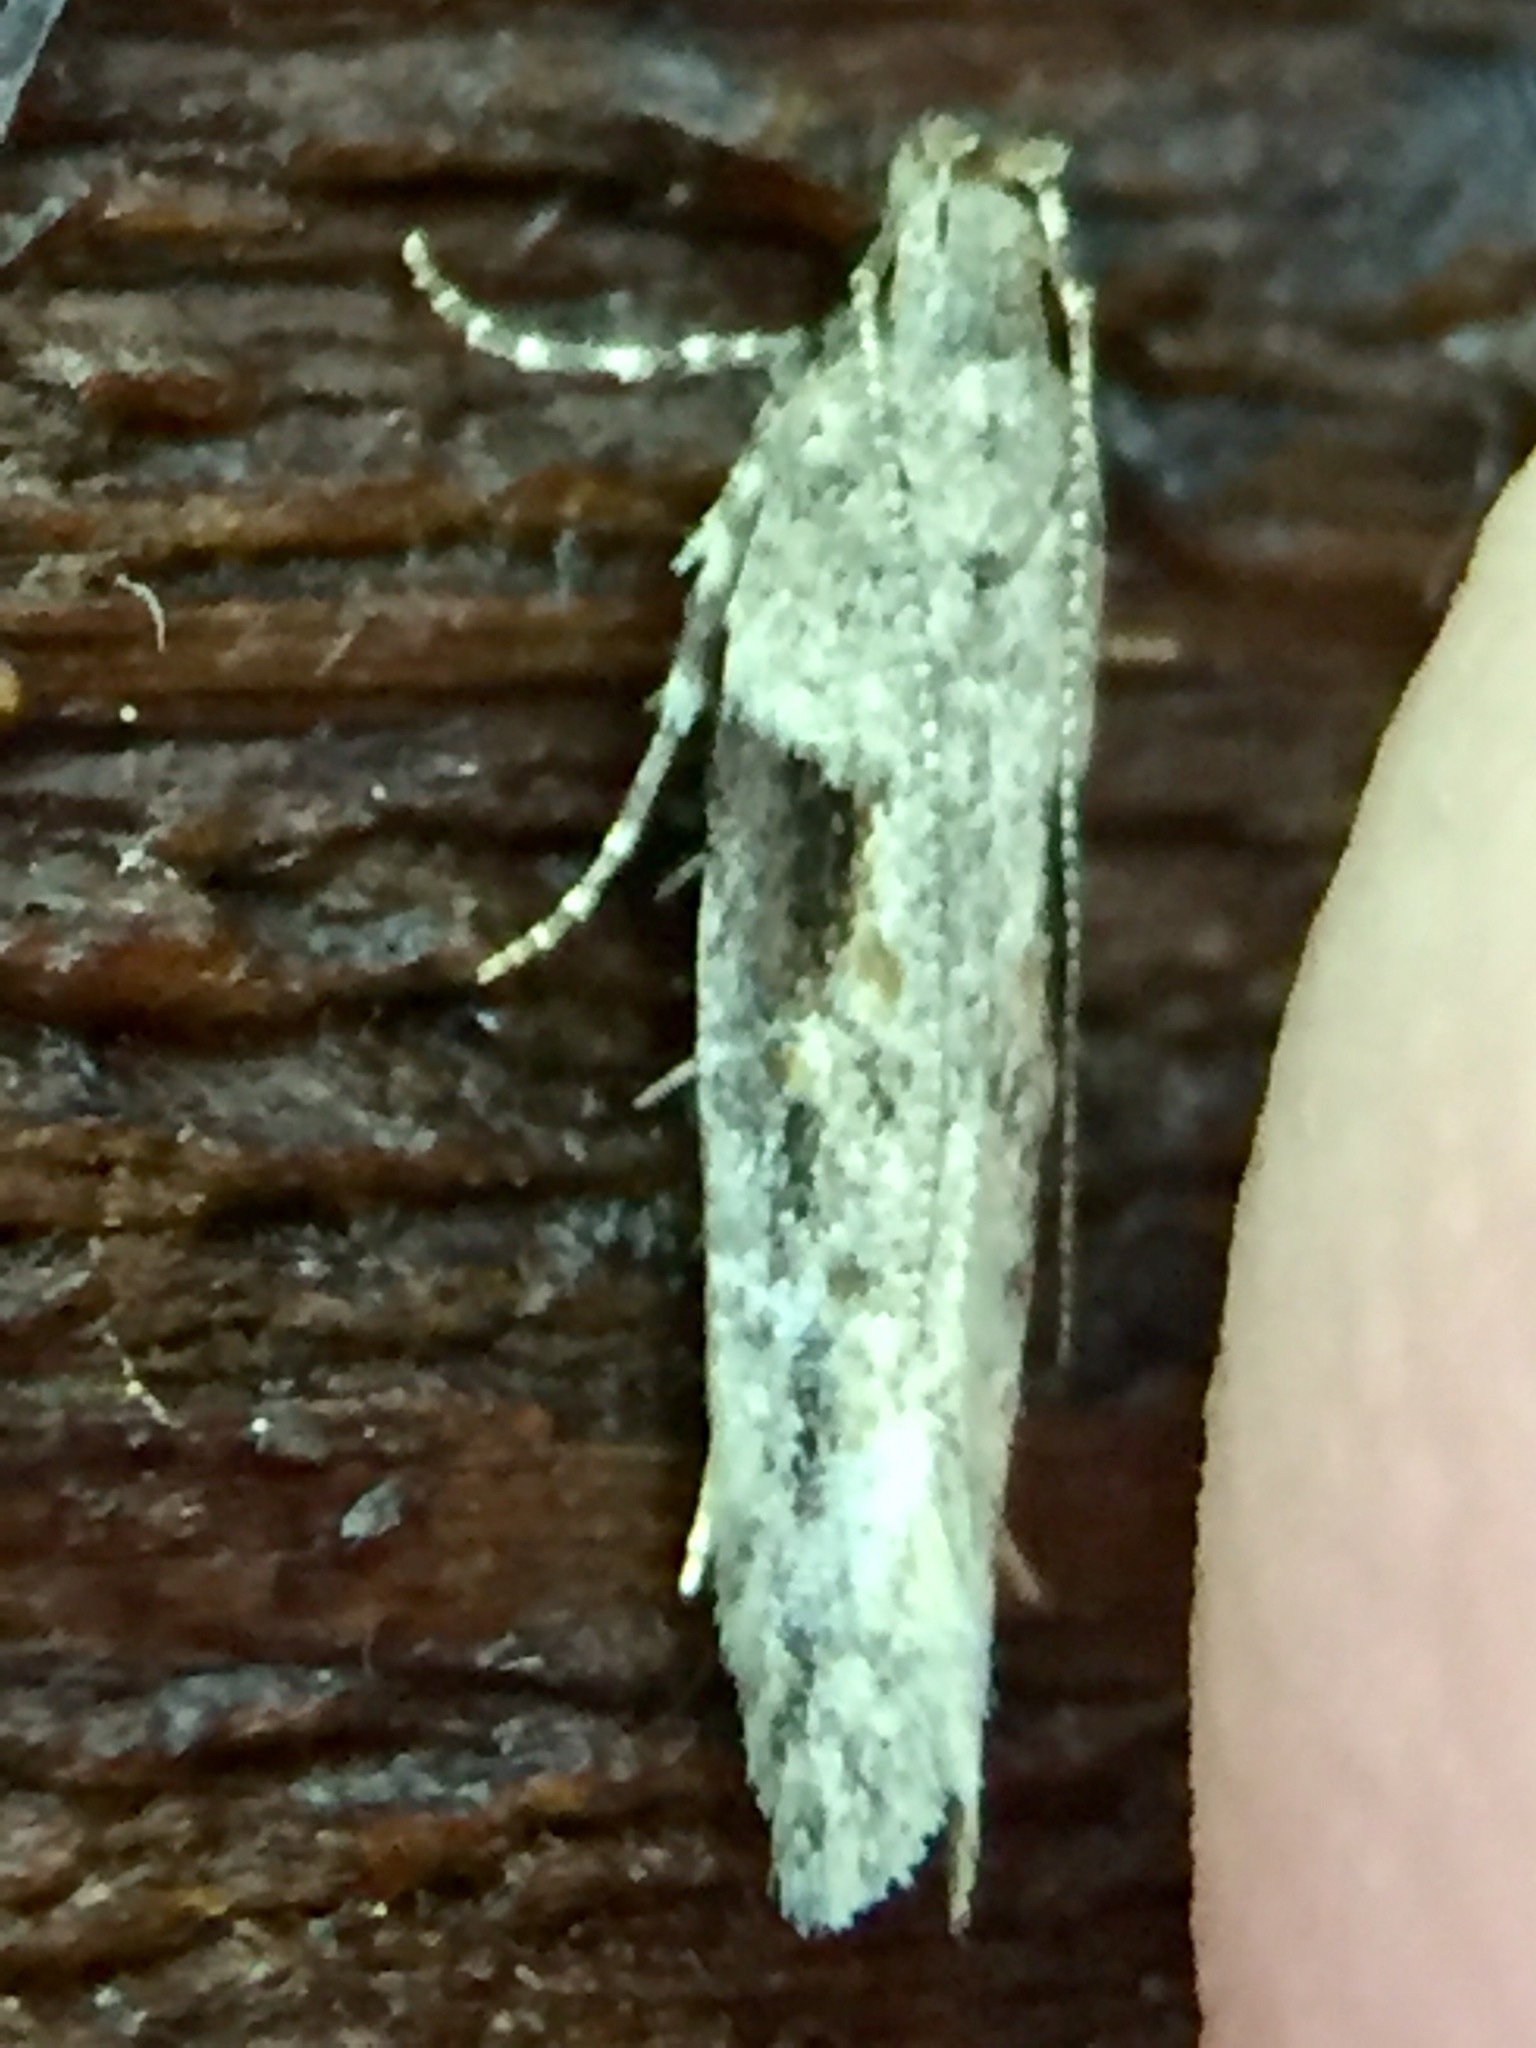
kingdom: Animalia
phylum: Arthropoda
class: Insecta
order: Lepidoptera
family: Gelechiidae
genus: Symmetrischema
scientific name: Symmetrischema tangolias
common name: Moth
